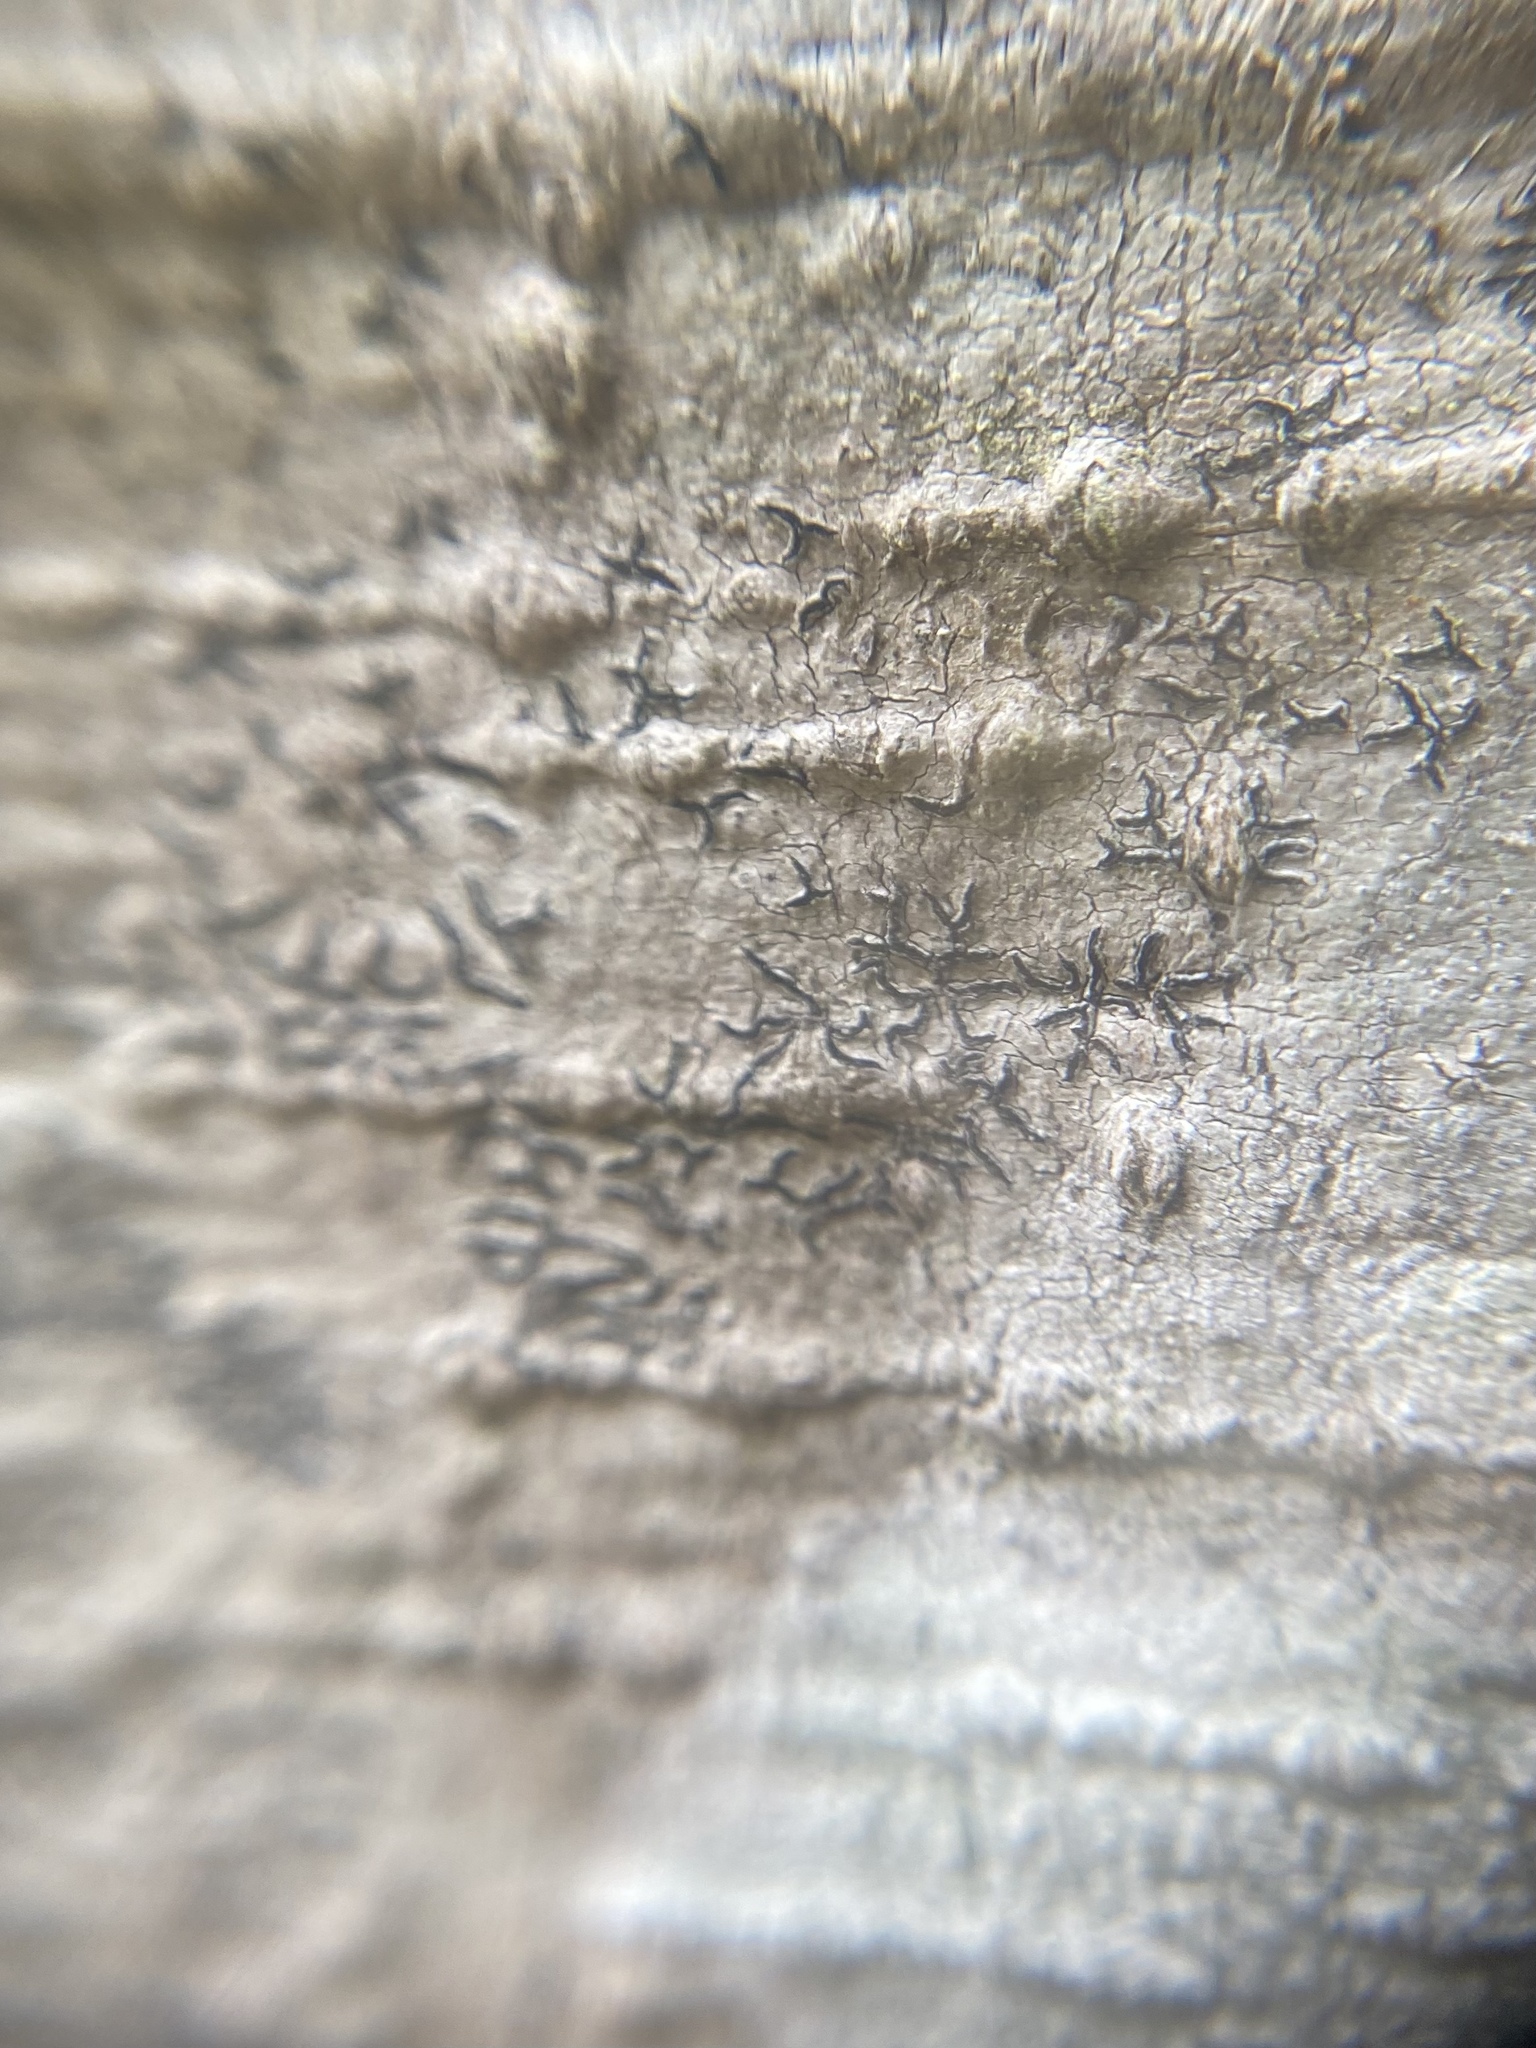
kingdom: Fungi
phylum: Ascomycota
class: Lecanoromycetes
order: Ostropales
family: Graphidaceae
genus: Graphis
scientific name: Graphis scripta
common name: Script lichen
